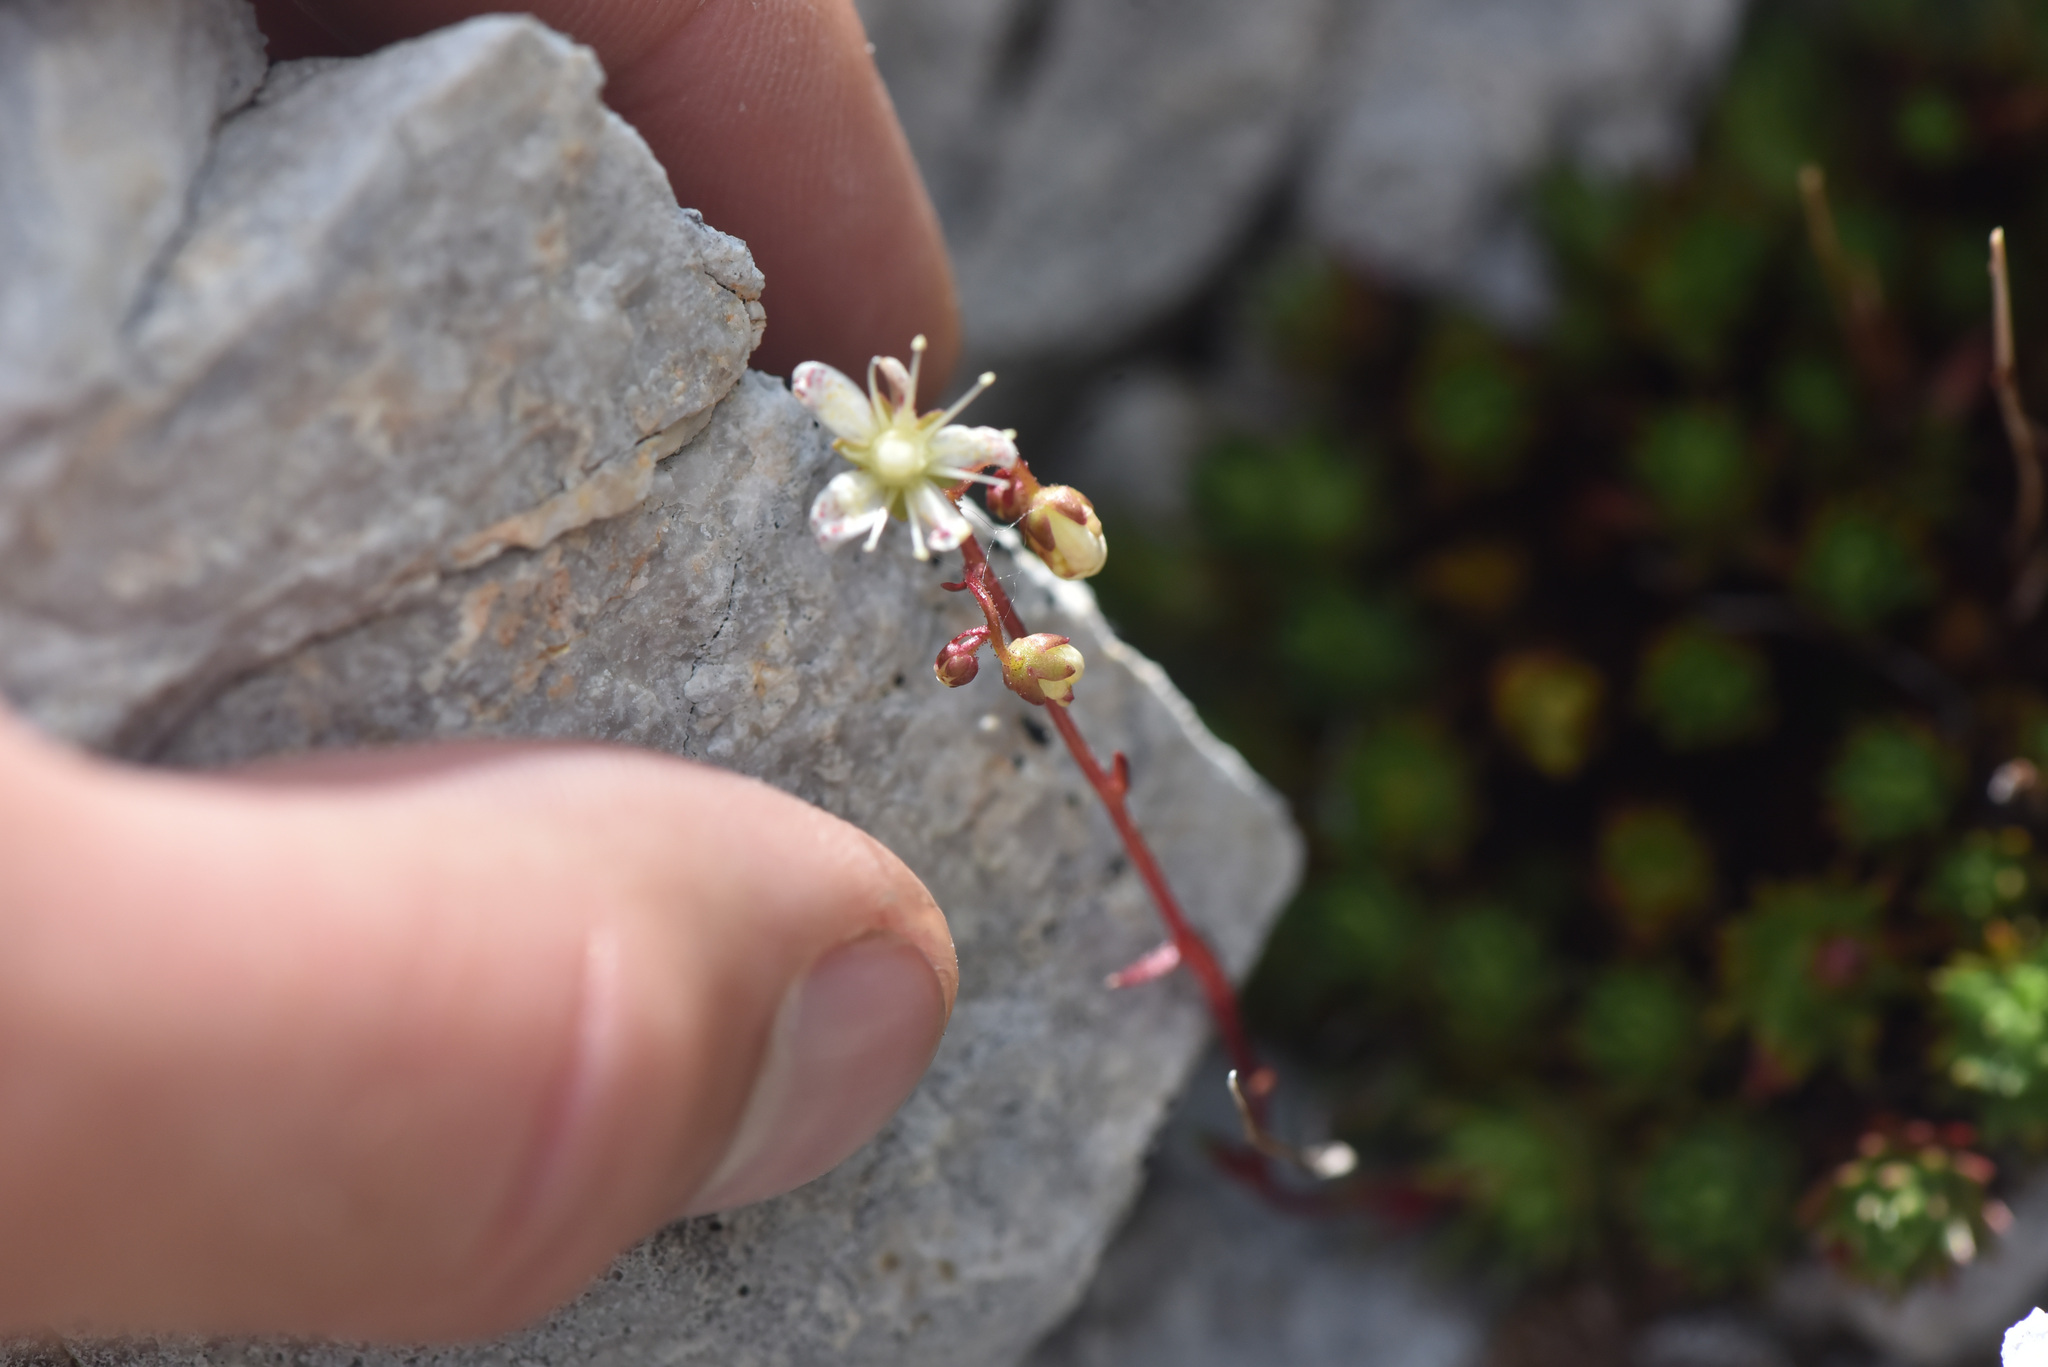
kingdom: Plantae
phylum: Tracheophyta
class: Magnoliopsida
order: Saxifragales
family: Saxifragaceae
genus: Saxifraga
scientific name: Saxifraga bronchialis
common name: Matted saxifrage
